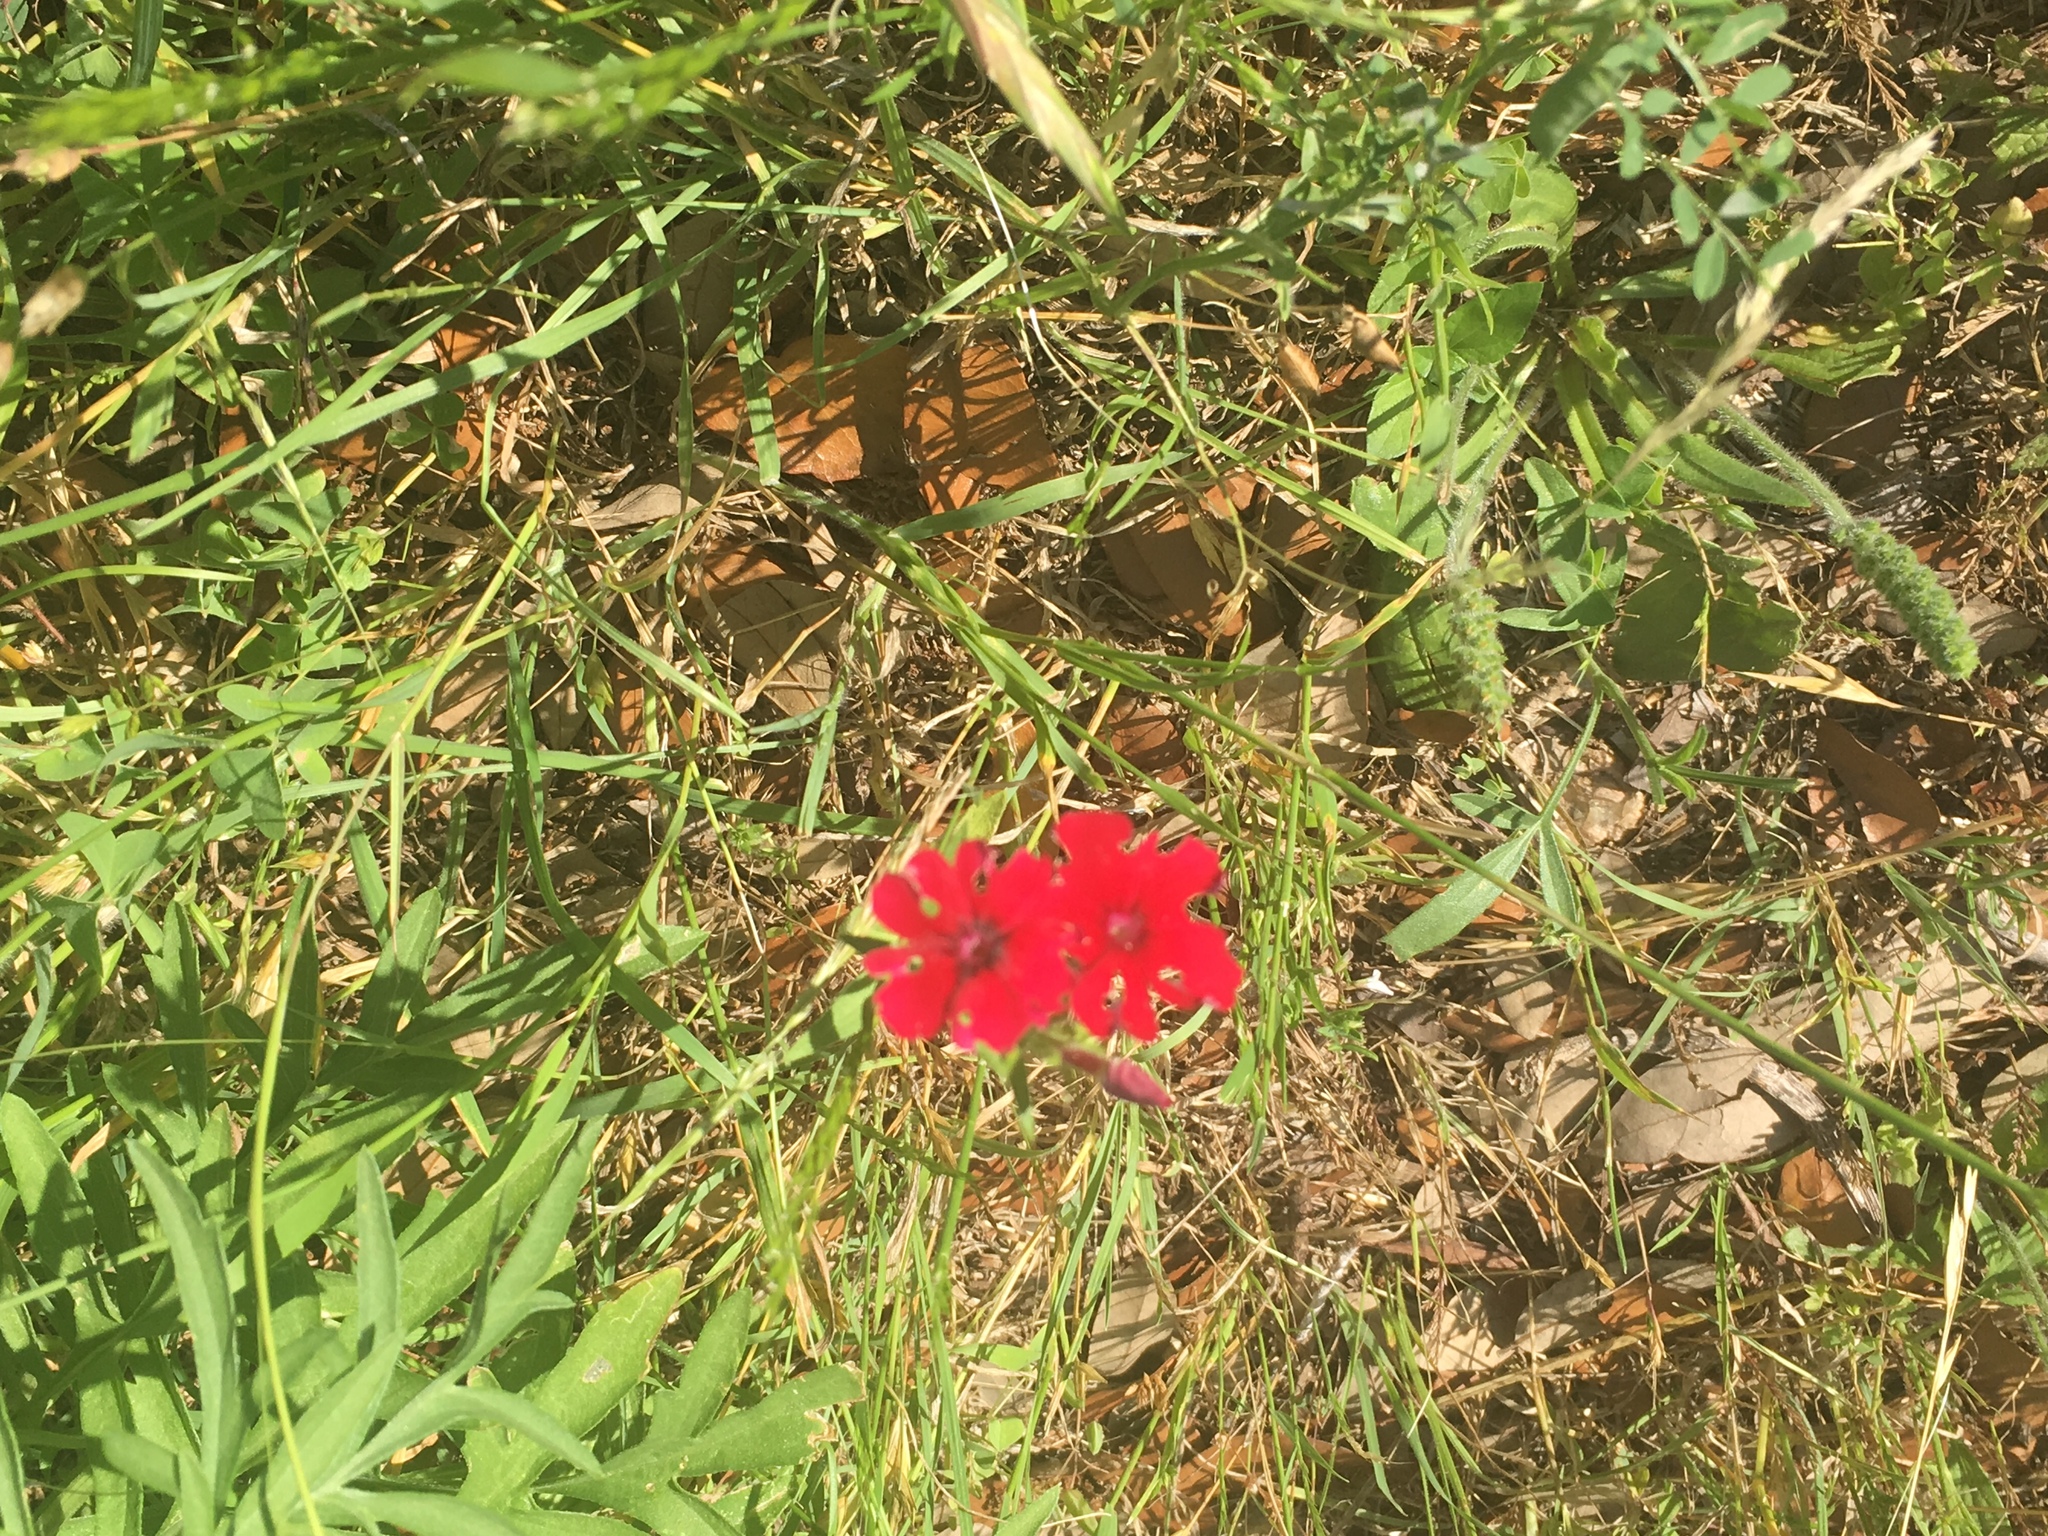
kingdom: Plantae
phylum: Tracheophyta
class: Magnoliopsida
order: Ericales
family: Polemoniaceae
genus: Phlox
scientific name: Phlox drummondii
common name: Drummond's phlox
